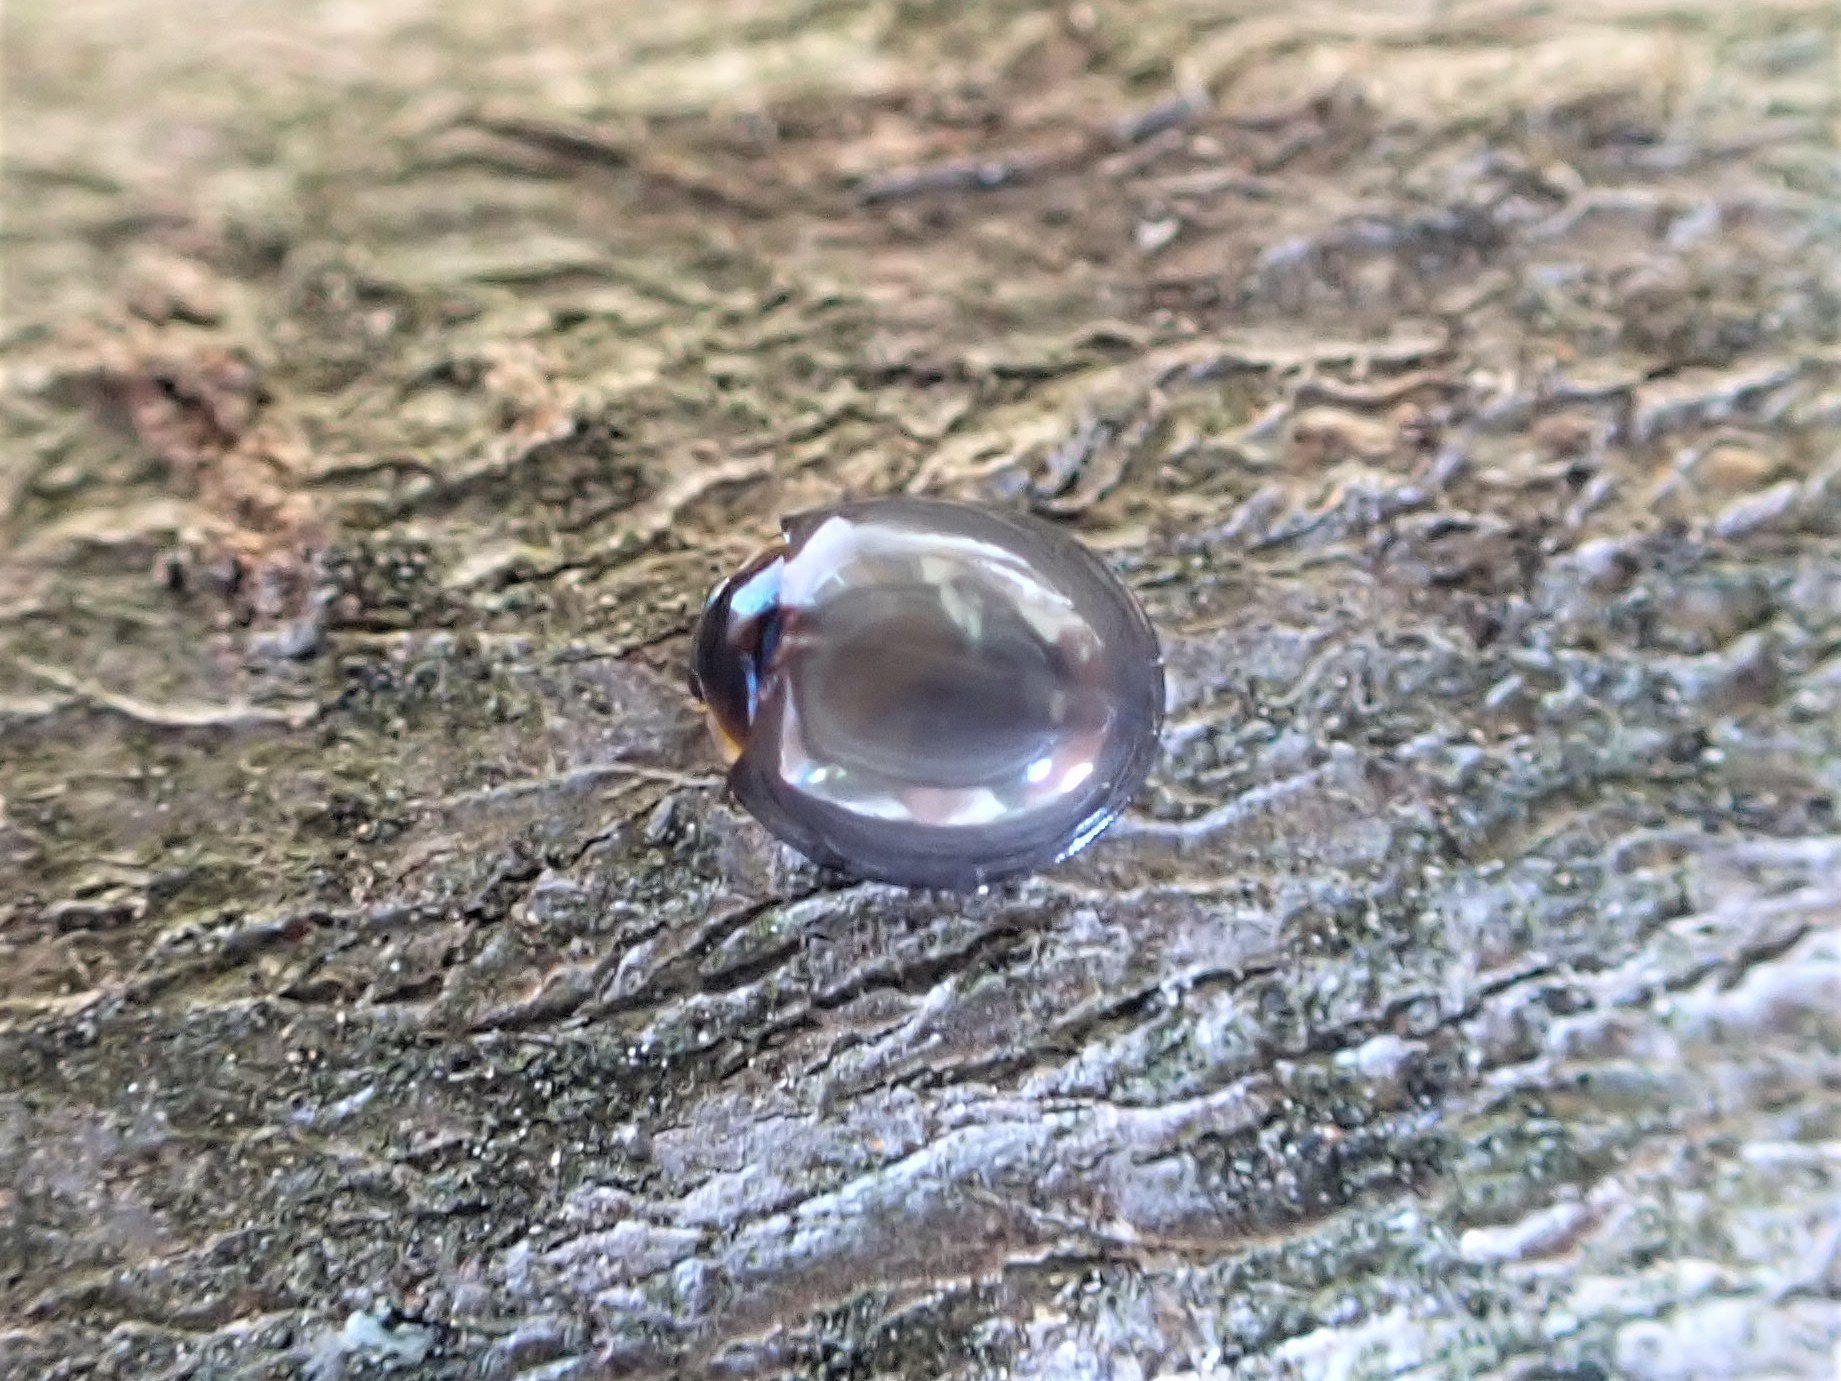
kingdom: Animalia
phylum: Arthropoda
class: Insecta
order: Coleoptera
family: Coccinellidae
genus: Halmus
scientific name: Halmus chalybeus
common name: Steel blue ladybird beetle
